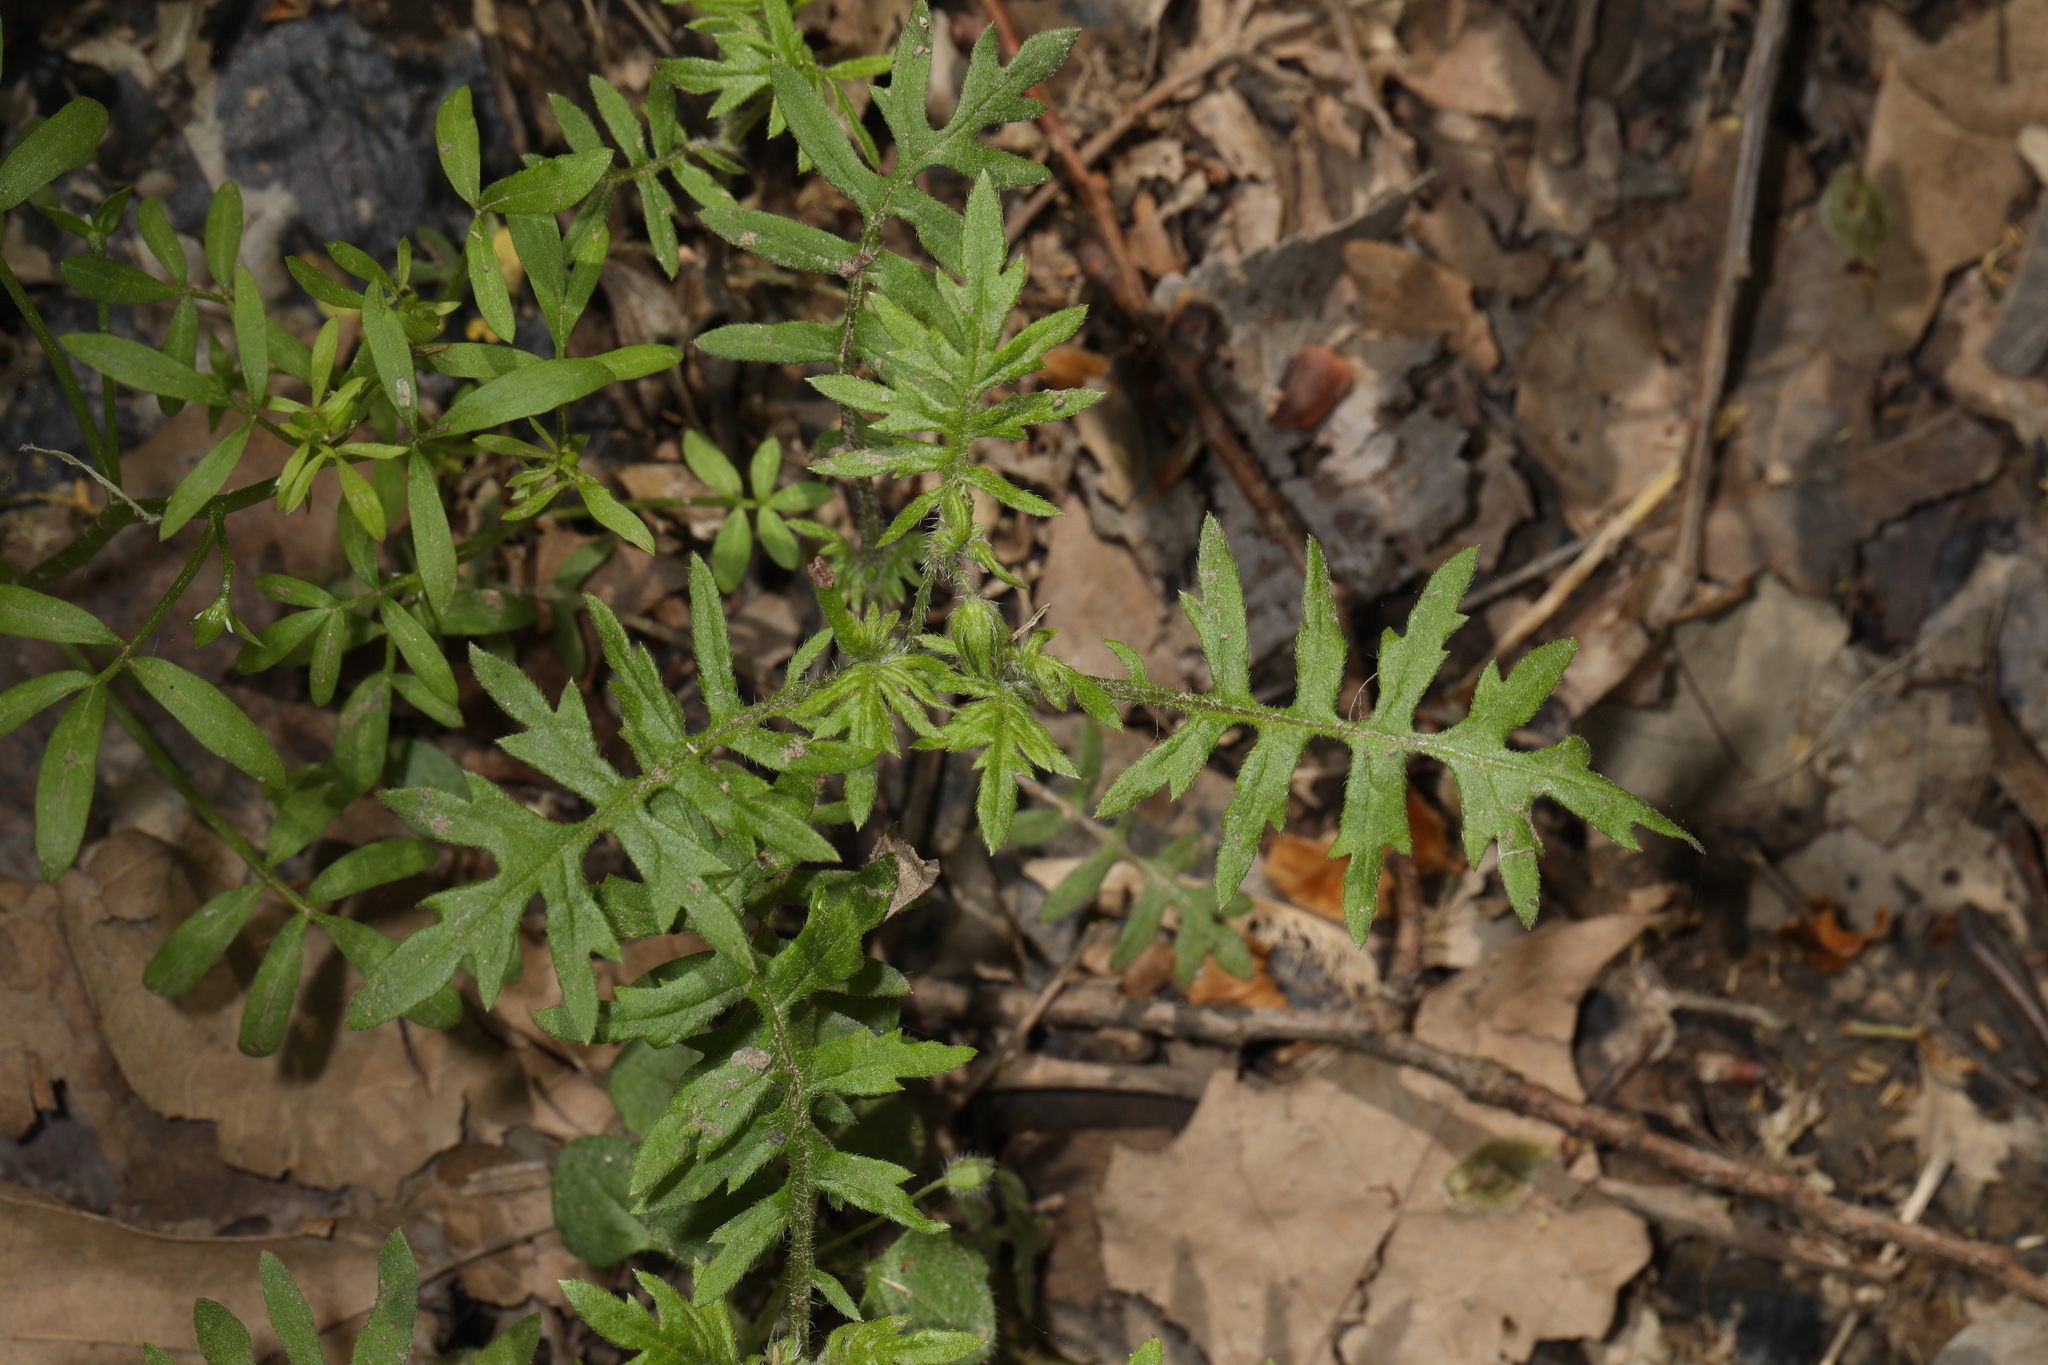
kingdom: Plantae
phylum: Tracheophyta
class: Magnoliopsida
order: Boraginales
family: Hydrophyllaceae
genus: Ellisia
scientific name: Ellisia nyctelea
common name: Aunt lucy
